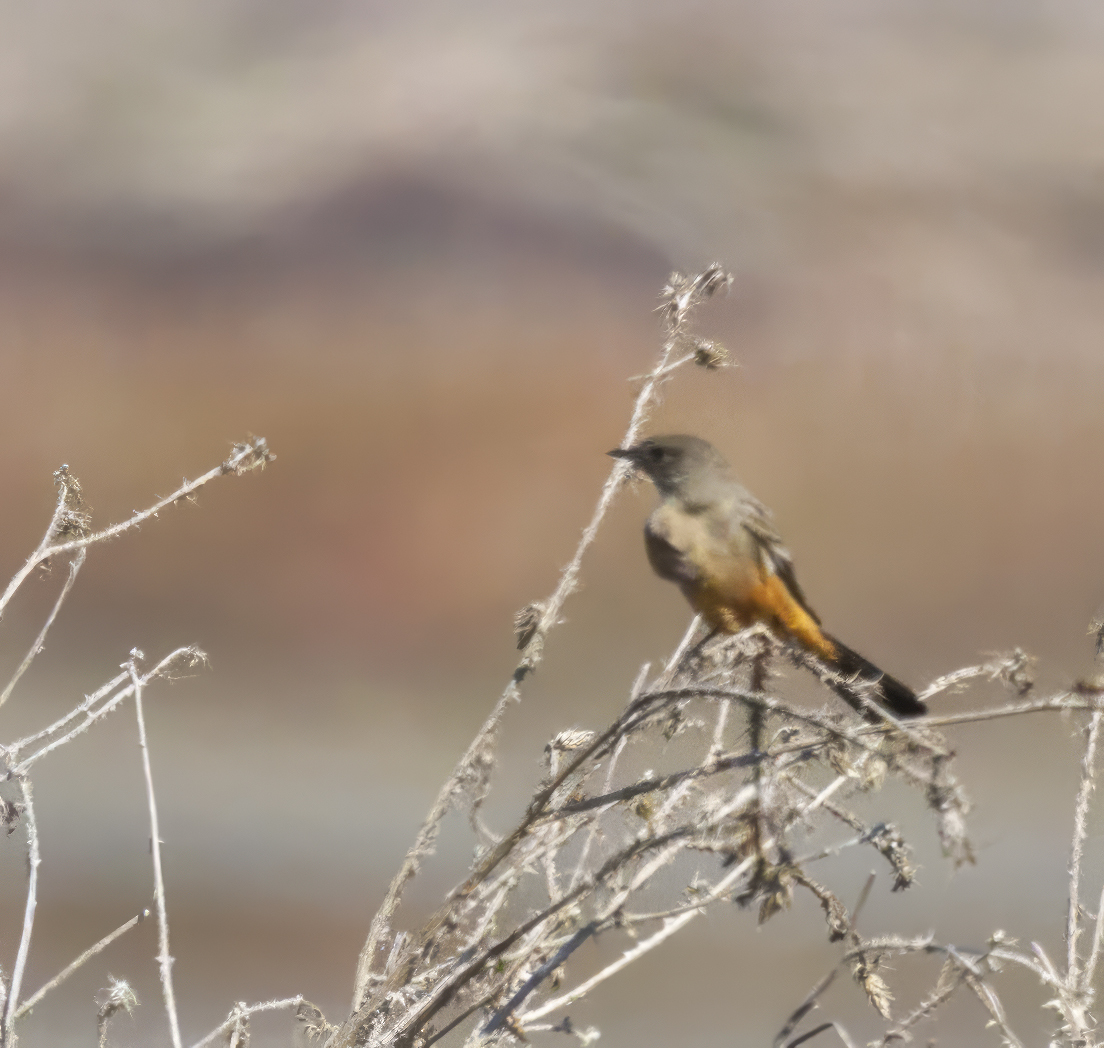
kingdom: Animalia
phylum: Chordata
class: Aves
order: Passeriformes
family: Tyrannidae
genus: Sayornis
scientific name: Sayornis saya
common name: Say's phoebe
